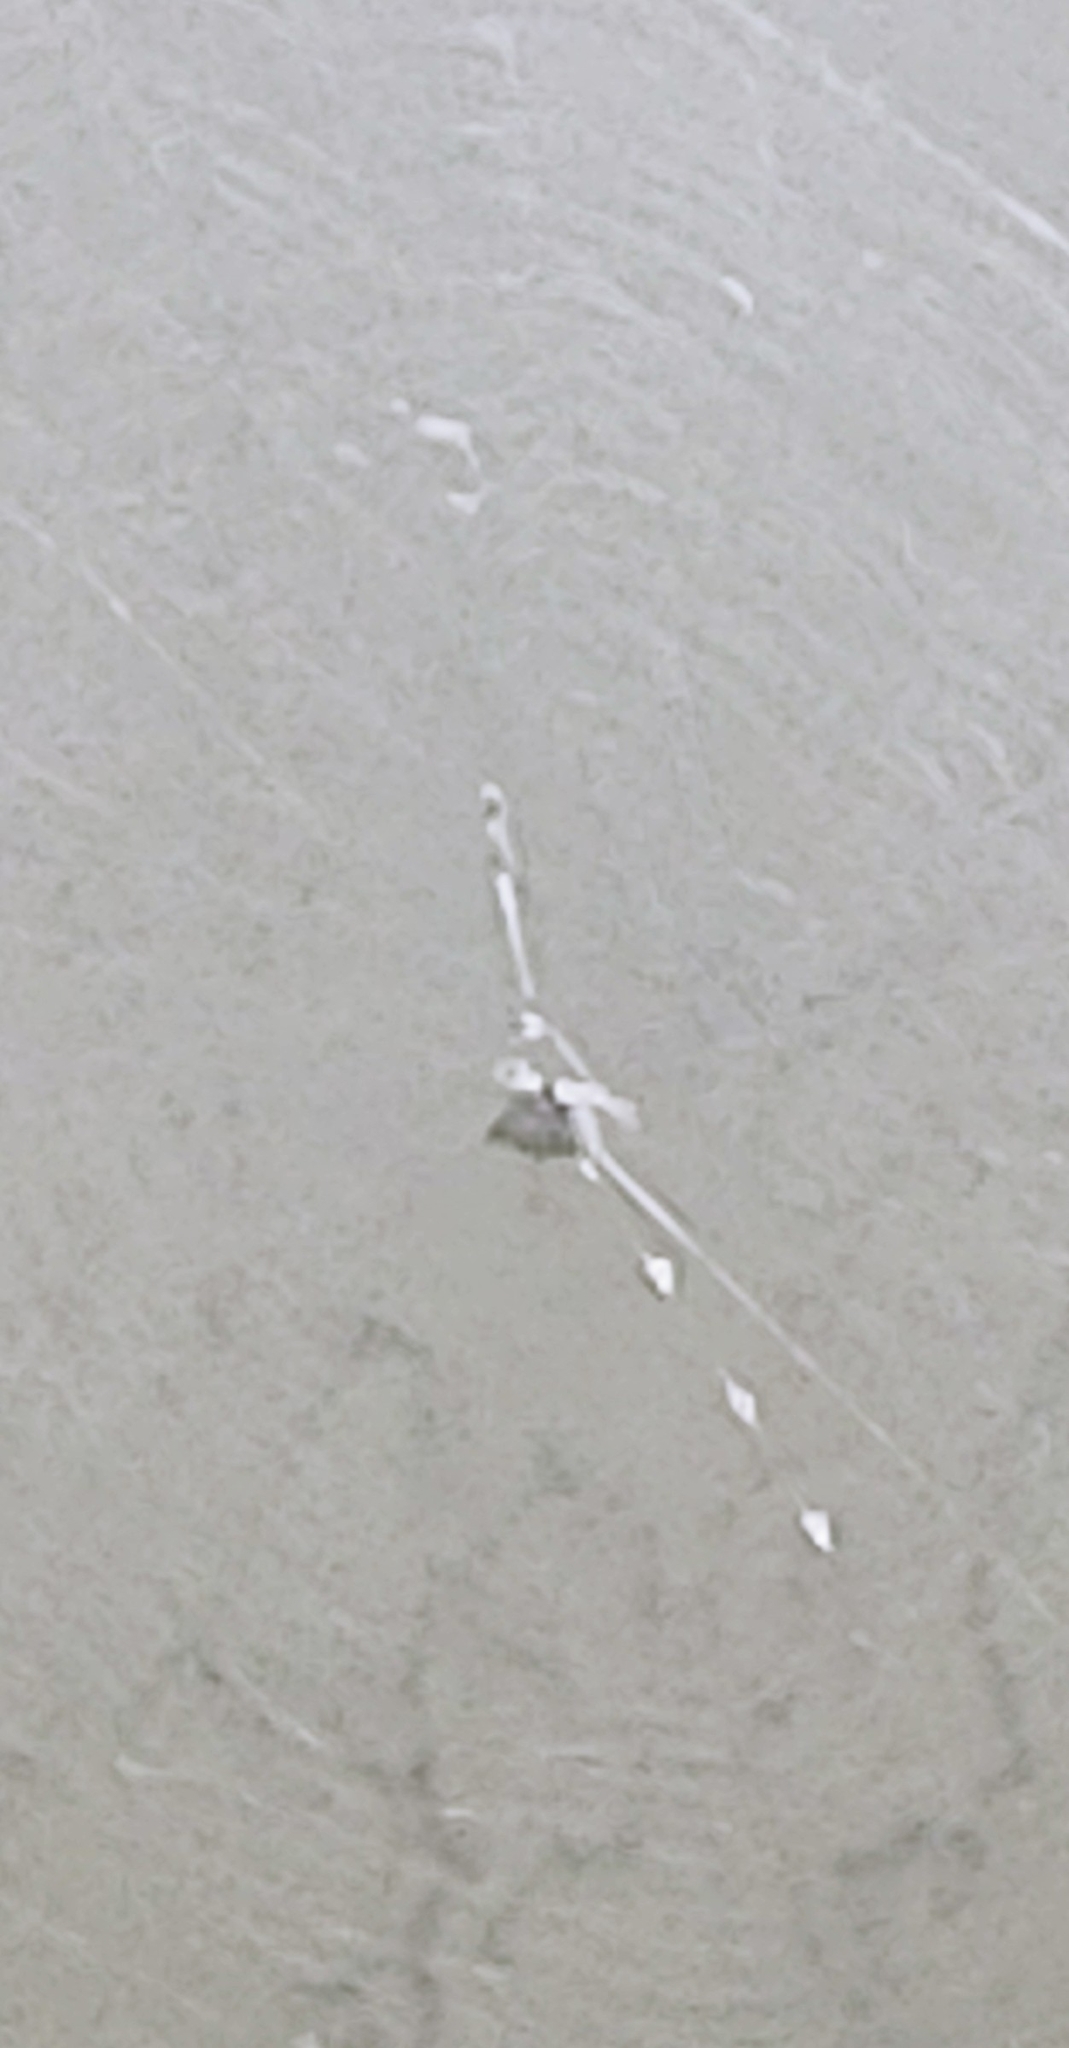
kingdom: Animalia
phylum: Arthropoda
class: Arachnida
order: Araneae
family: Araneidae
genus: Gasteracantha
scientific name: Gasteracantha cancriformis
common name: Orb weavers
